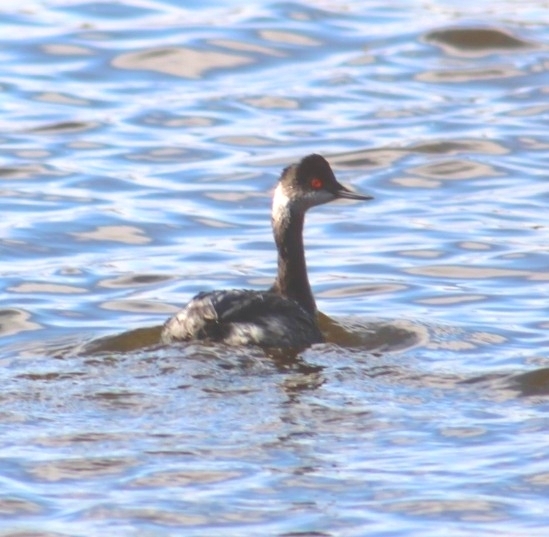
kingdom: Animalia
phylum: Chordata
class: Aves
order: Podicipediformes
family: Podicipedidae
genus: Podiceps
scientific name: Podiceps nigricollis
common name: Black-necked grebe
